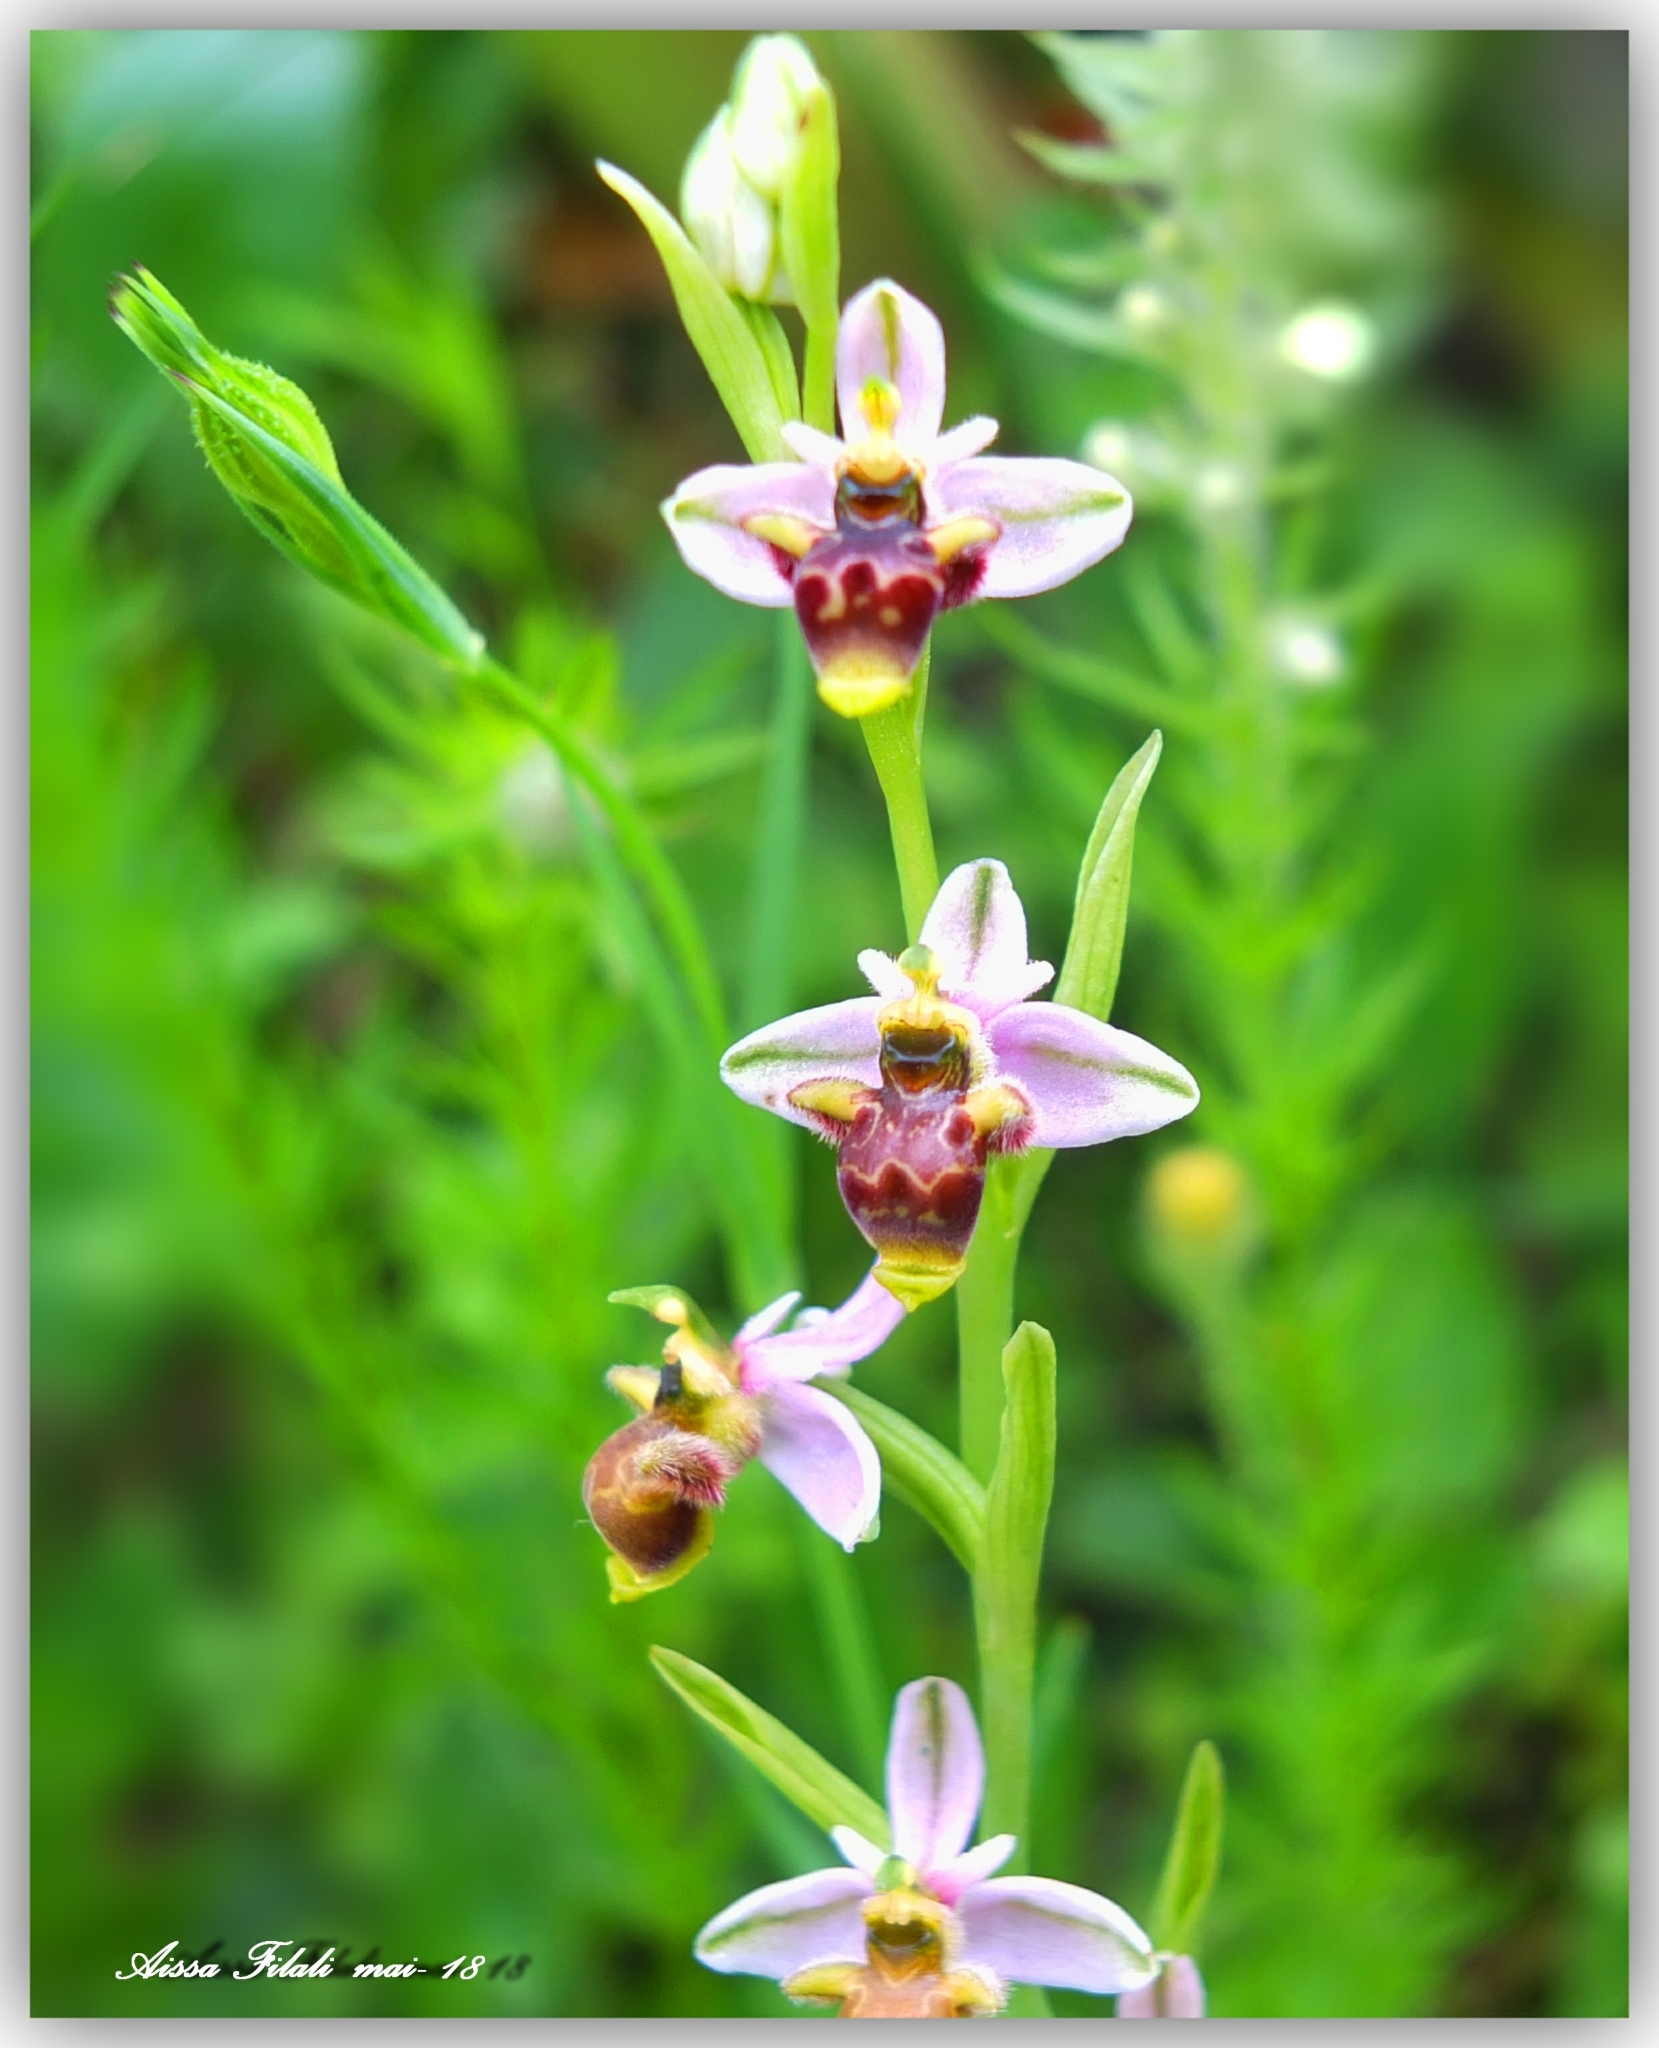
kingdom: Plantae
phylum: Tracheophyta
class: Liliopsida
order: Asparagales
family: Orchidaceae
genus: Ophrys
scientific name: Ophrys scolopax
